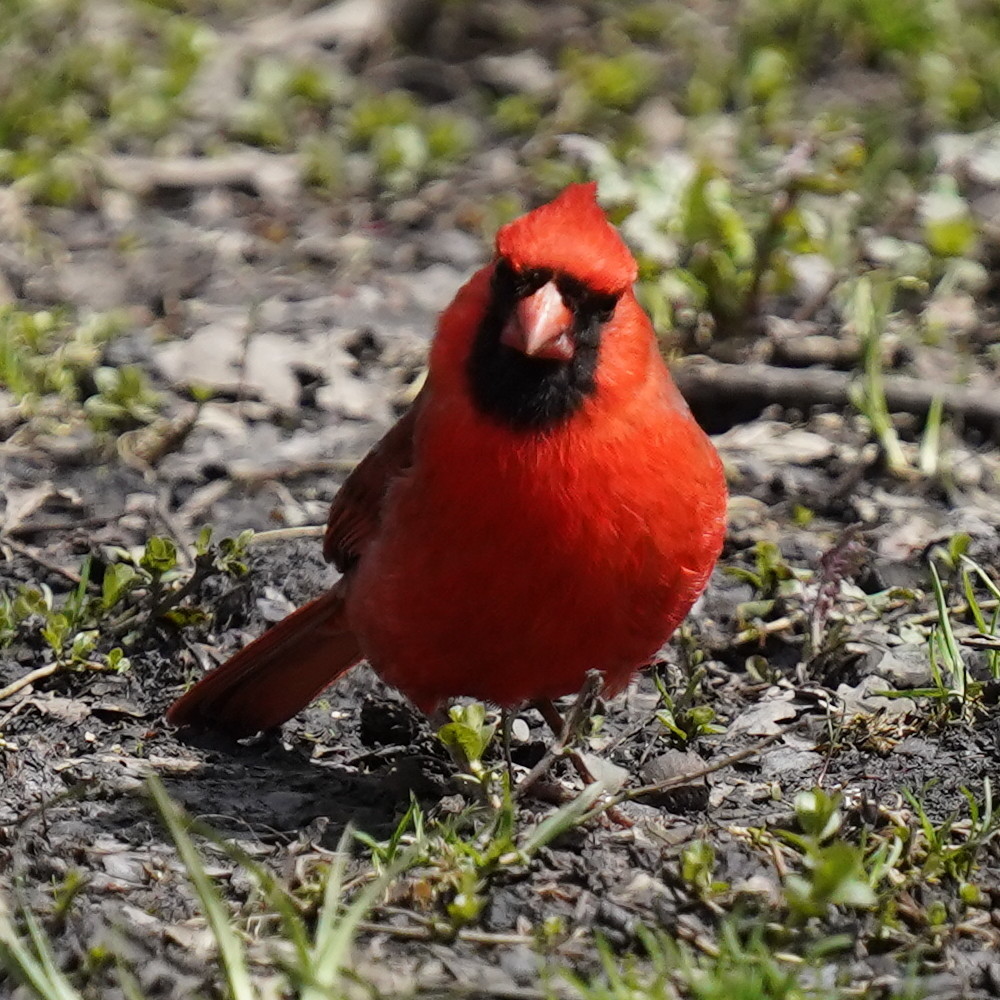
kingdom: Animalia
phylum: Chordata
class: Aves
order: Passeriformes
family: Cardinalidae
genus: Cardinalis
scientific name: Cardinalis cardinalis
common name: Northern cardinal
